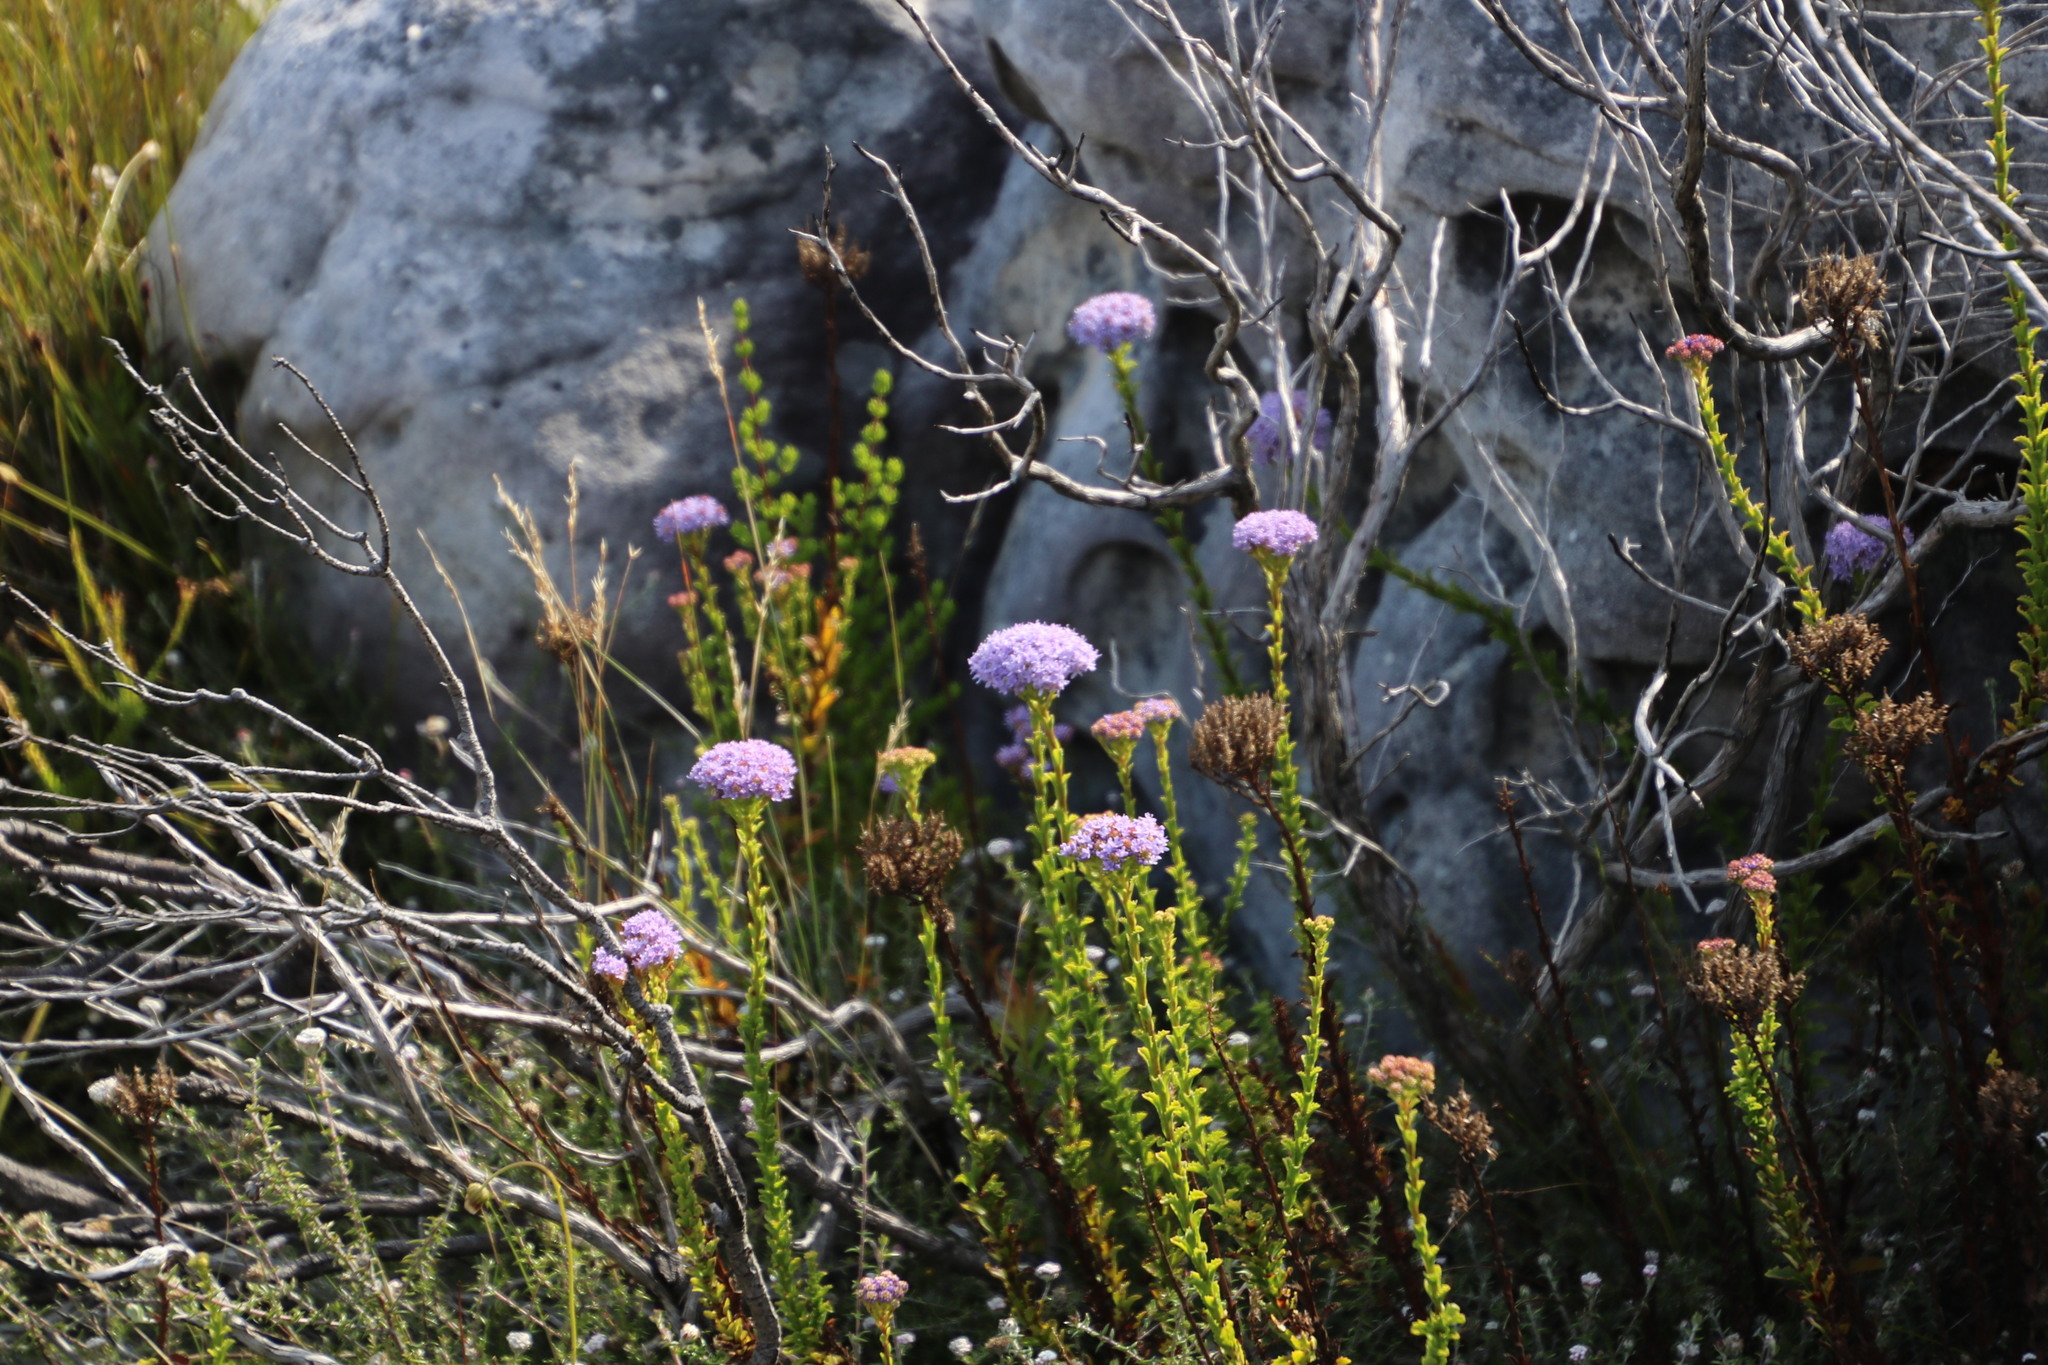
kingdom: Plantae
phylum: Tracheophyta
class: Magnoliopsida
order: Lamiales
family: Scrophulariaceae
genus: Pseudoselago
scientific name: Pseudoselago serrata
